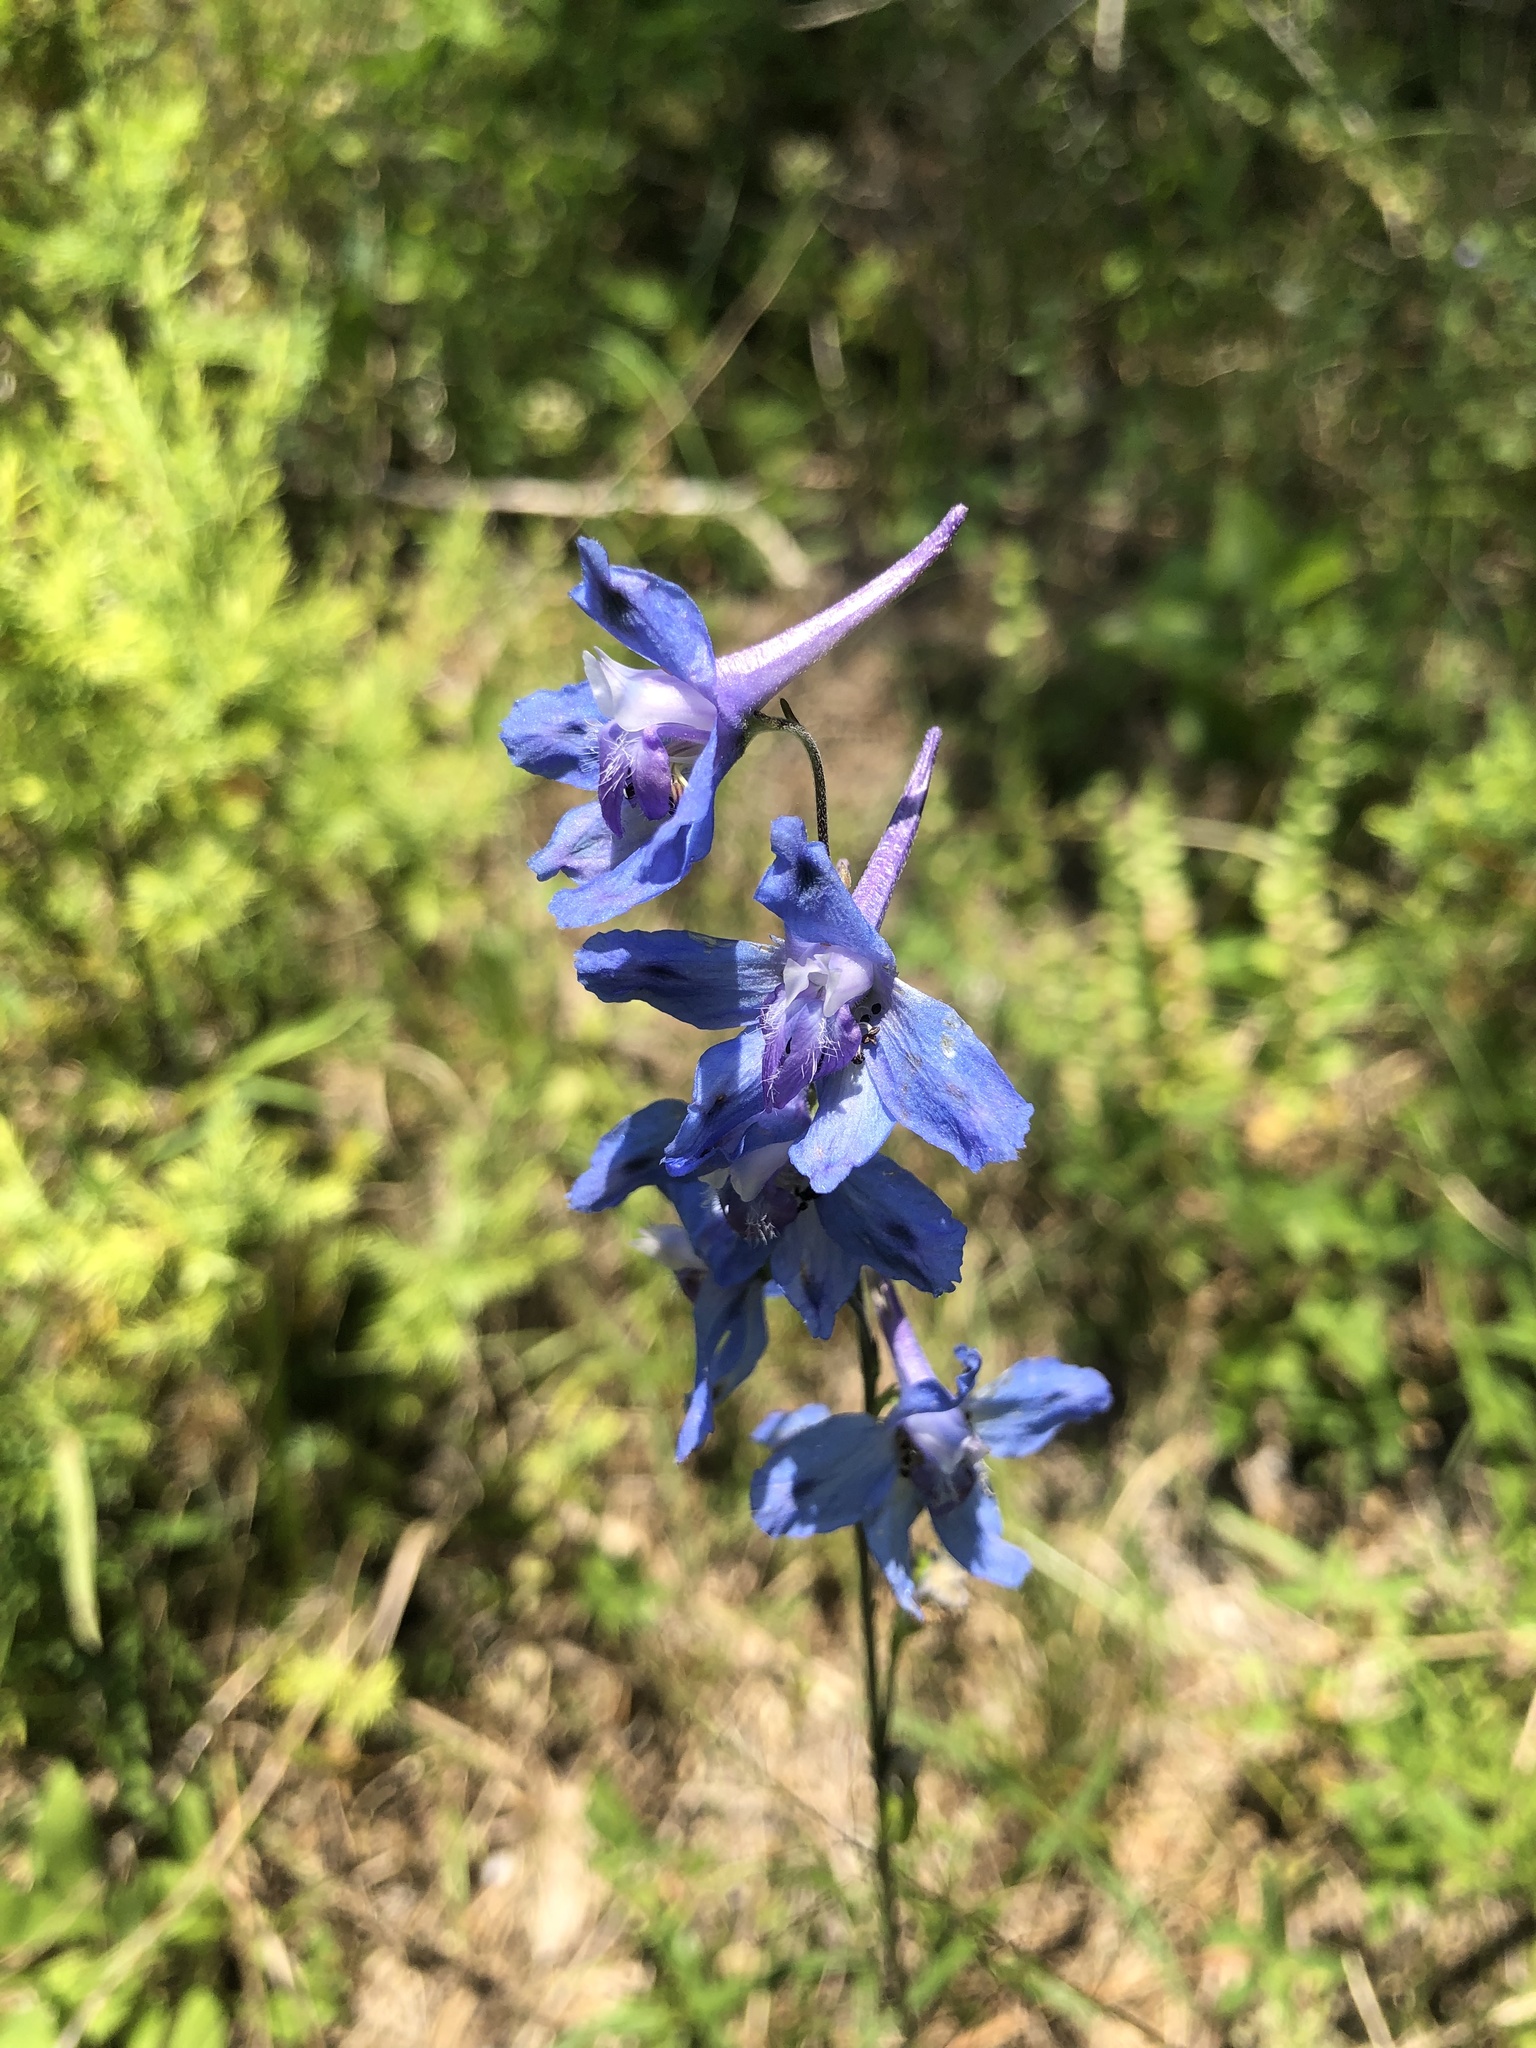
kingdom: Plantae
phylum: Tracheophyta
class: Magnoliopsida
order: Ranunculales
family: Ranunculaceae
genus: Delphinium
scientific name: Delphinium carolinianum
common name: Carolina larkspur
